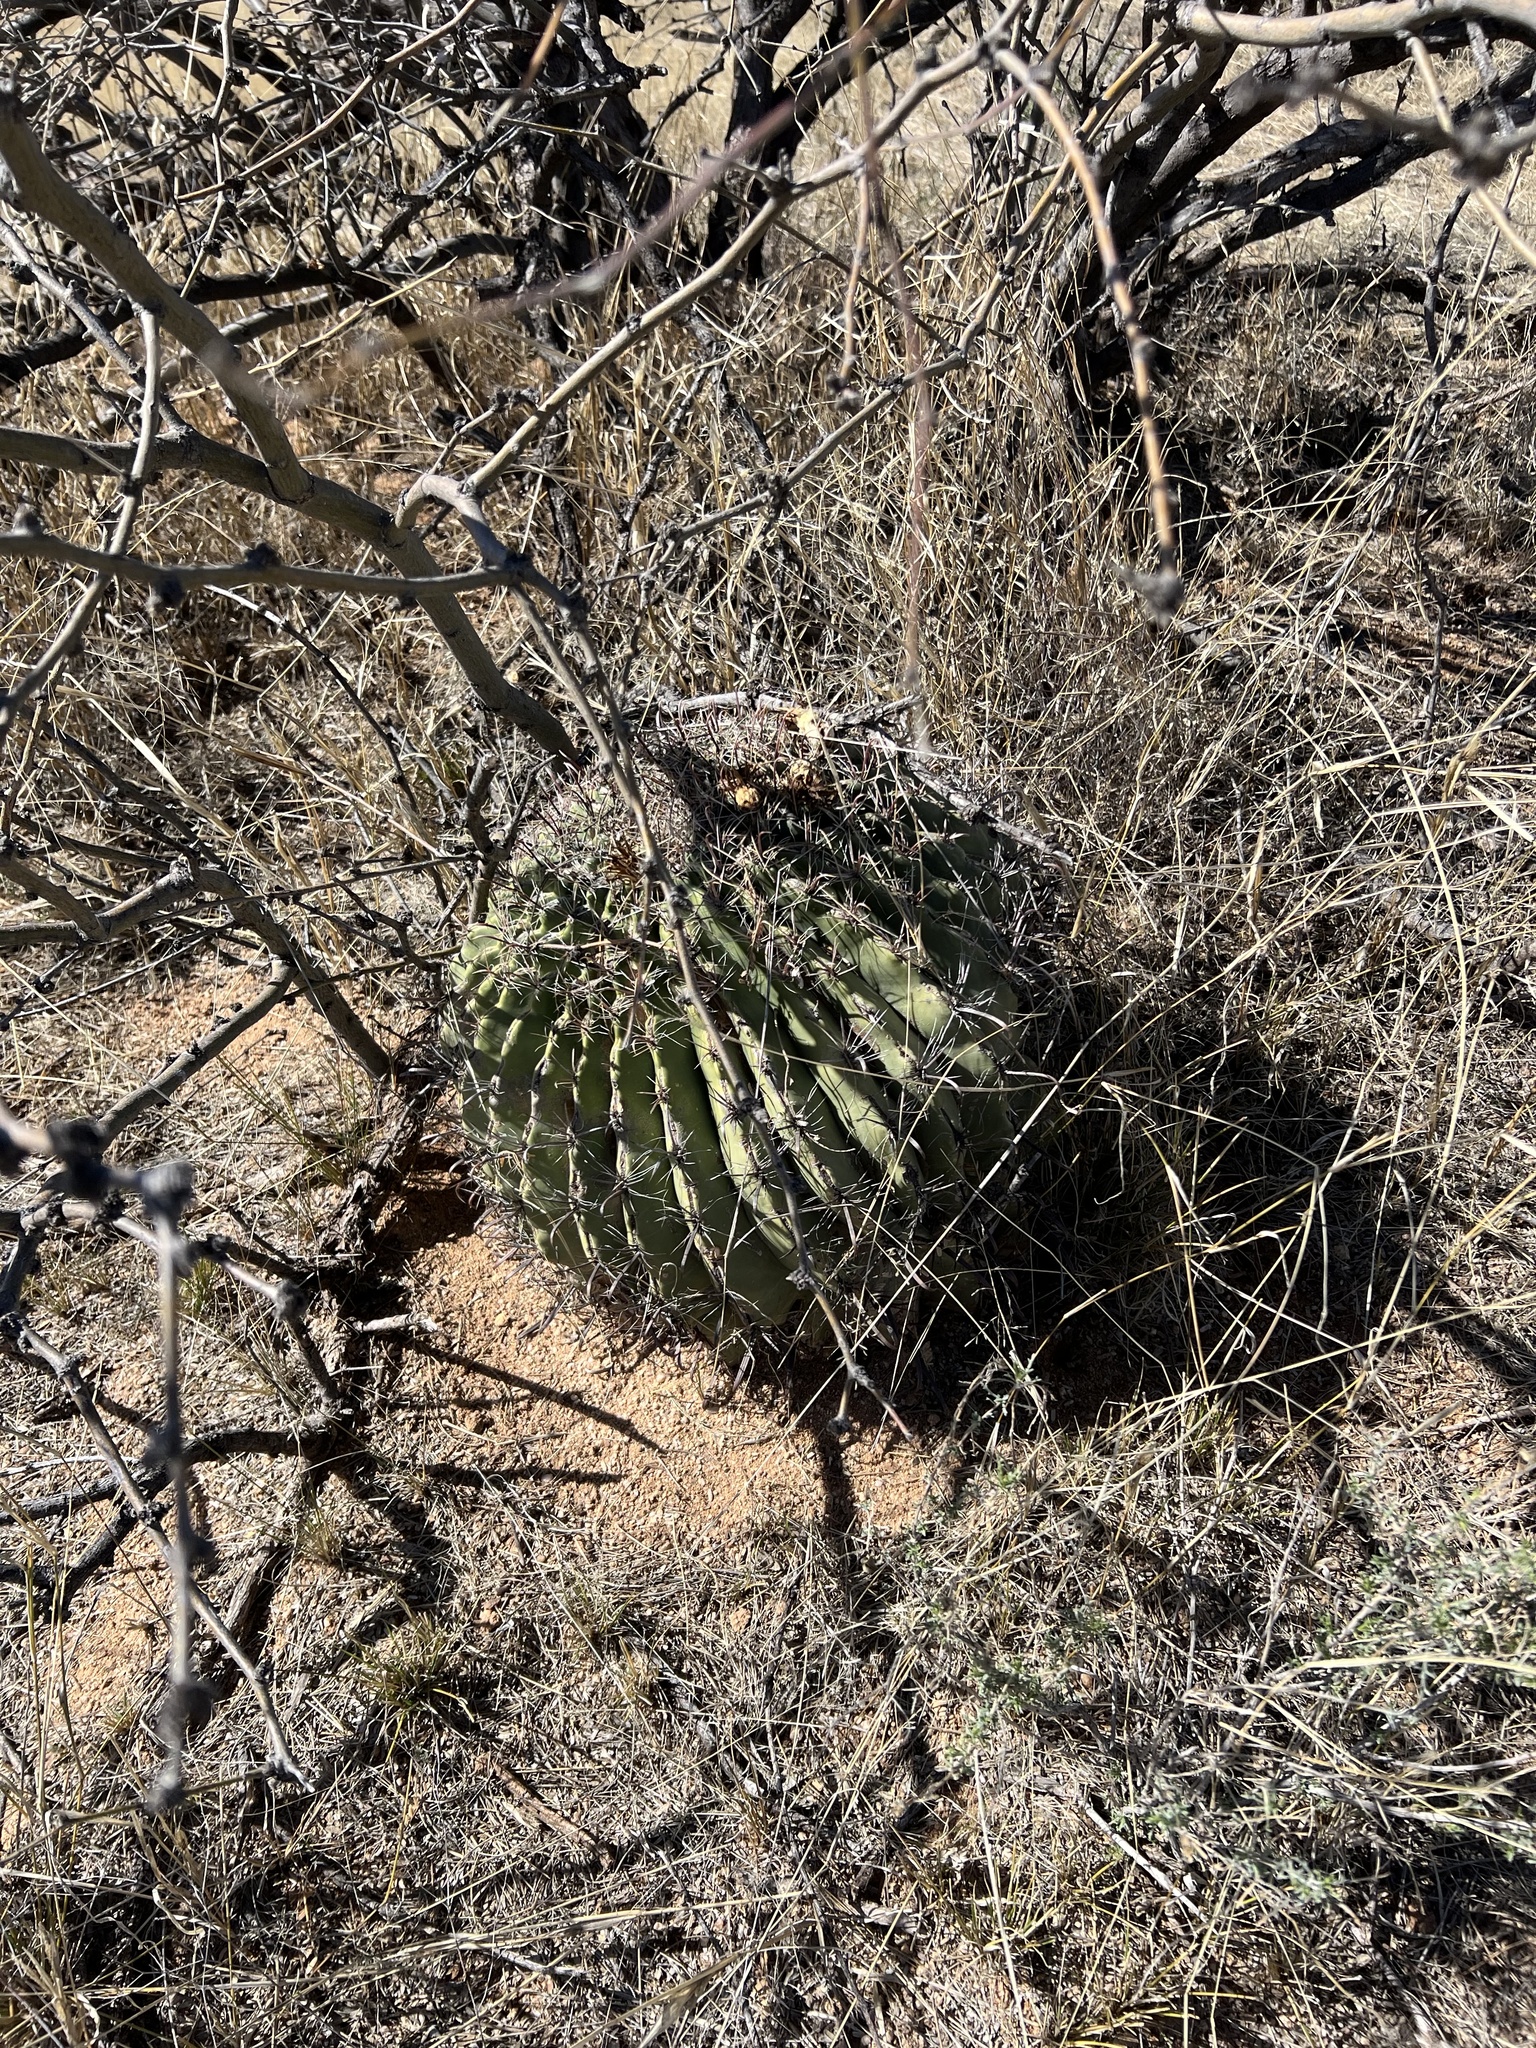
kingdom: Plantae
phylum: Tracheophyta
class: Magnoliopsida
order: Caryophyllales
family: Cactaceae
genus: Ferocactus
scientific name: Ferocactus wislizeni
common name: Candy barrel cactus
